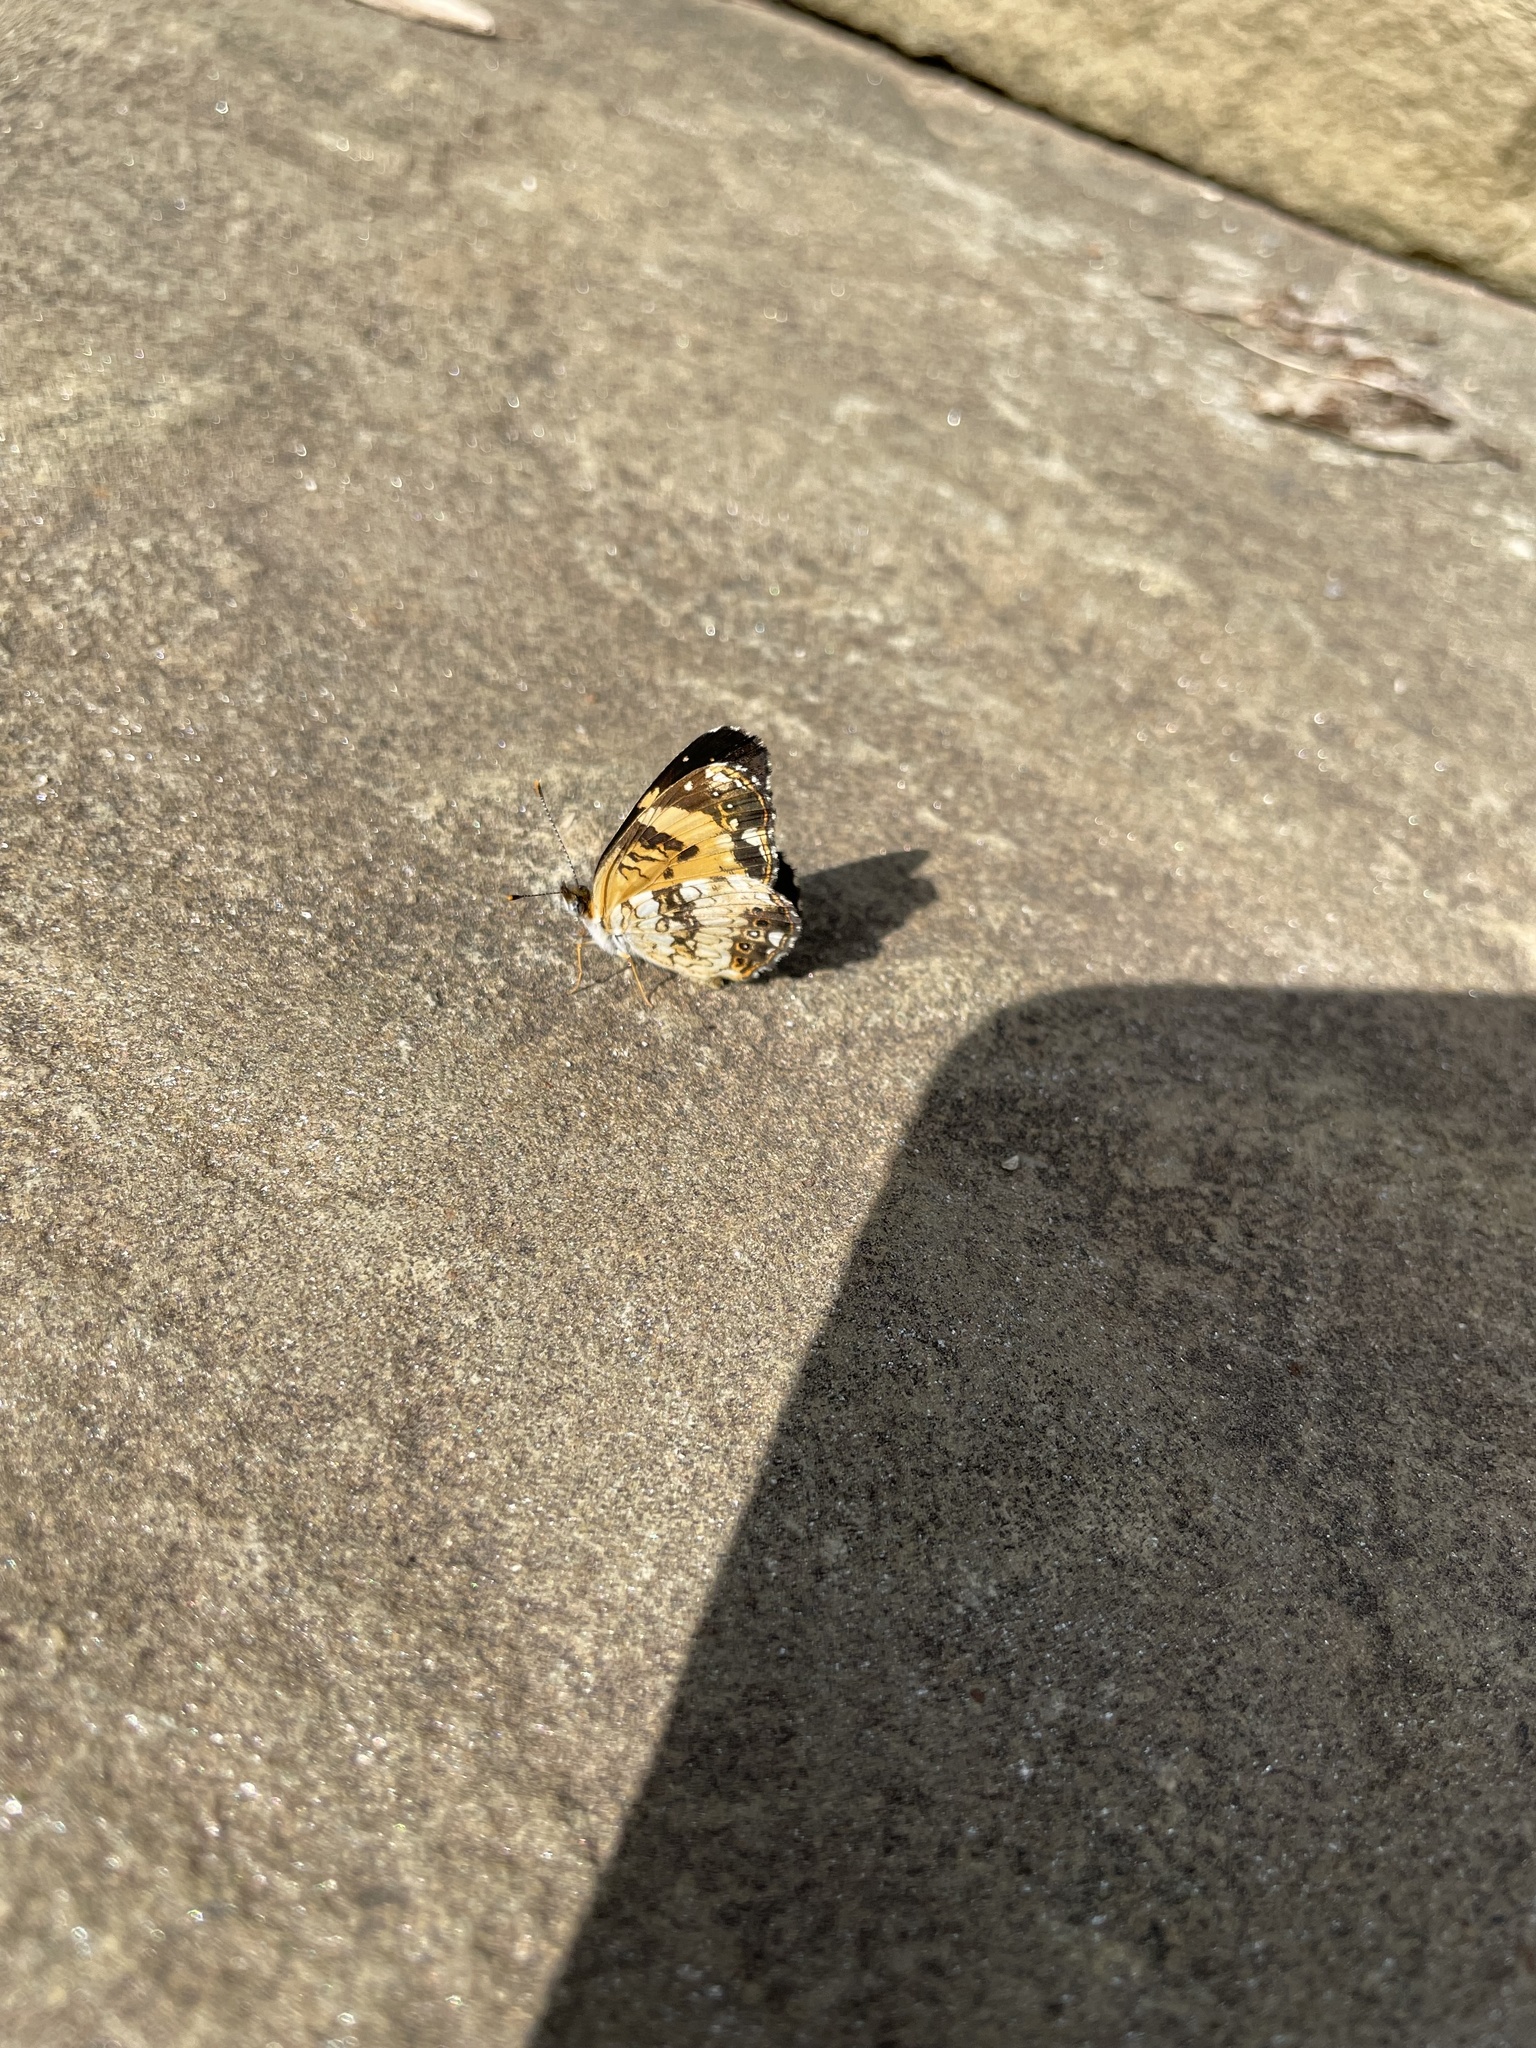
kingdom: Animalia
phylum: Arthropoda
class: Insecta
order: Lepidoptera
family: Nymphalidae
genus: Chlosyne
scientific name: Chlosyne nycteis
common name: Silvery checkerspot
